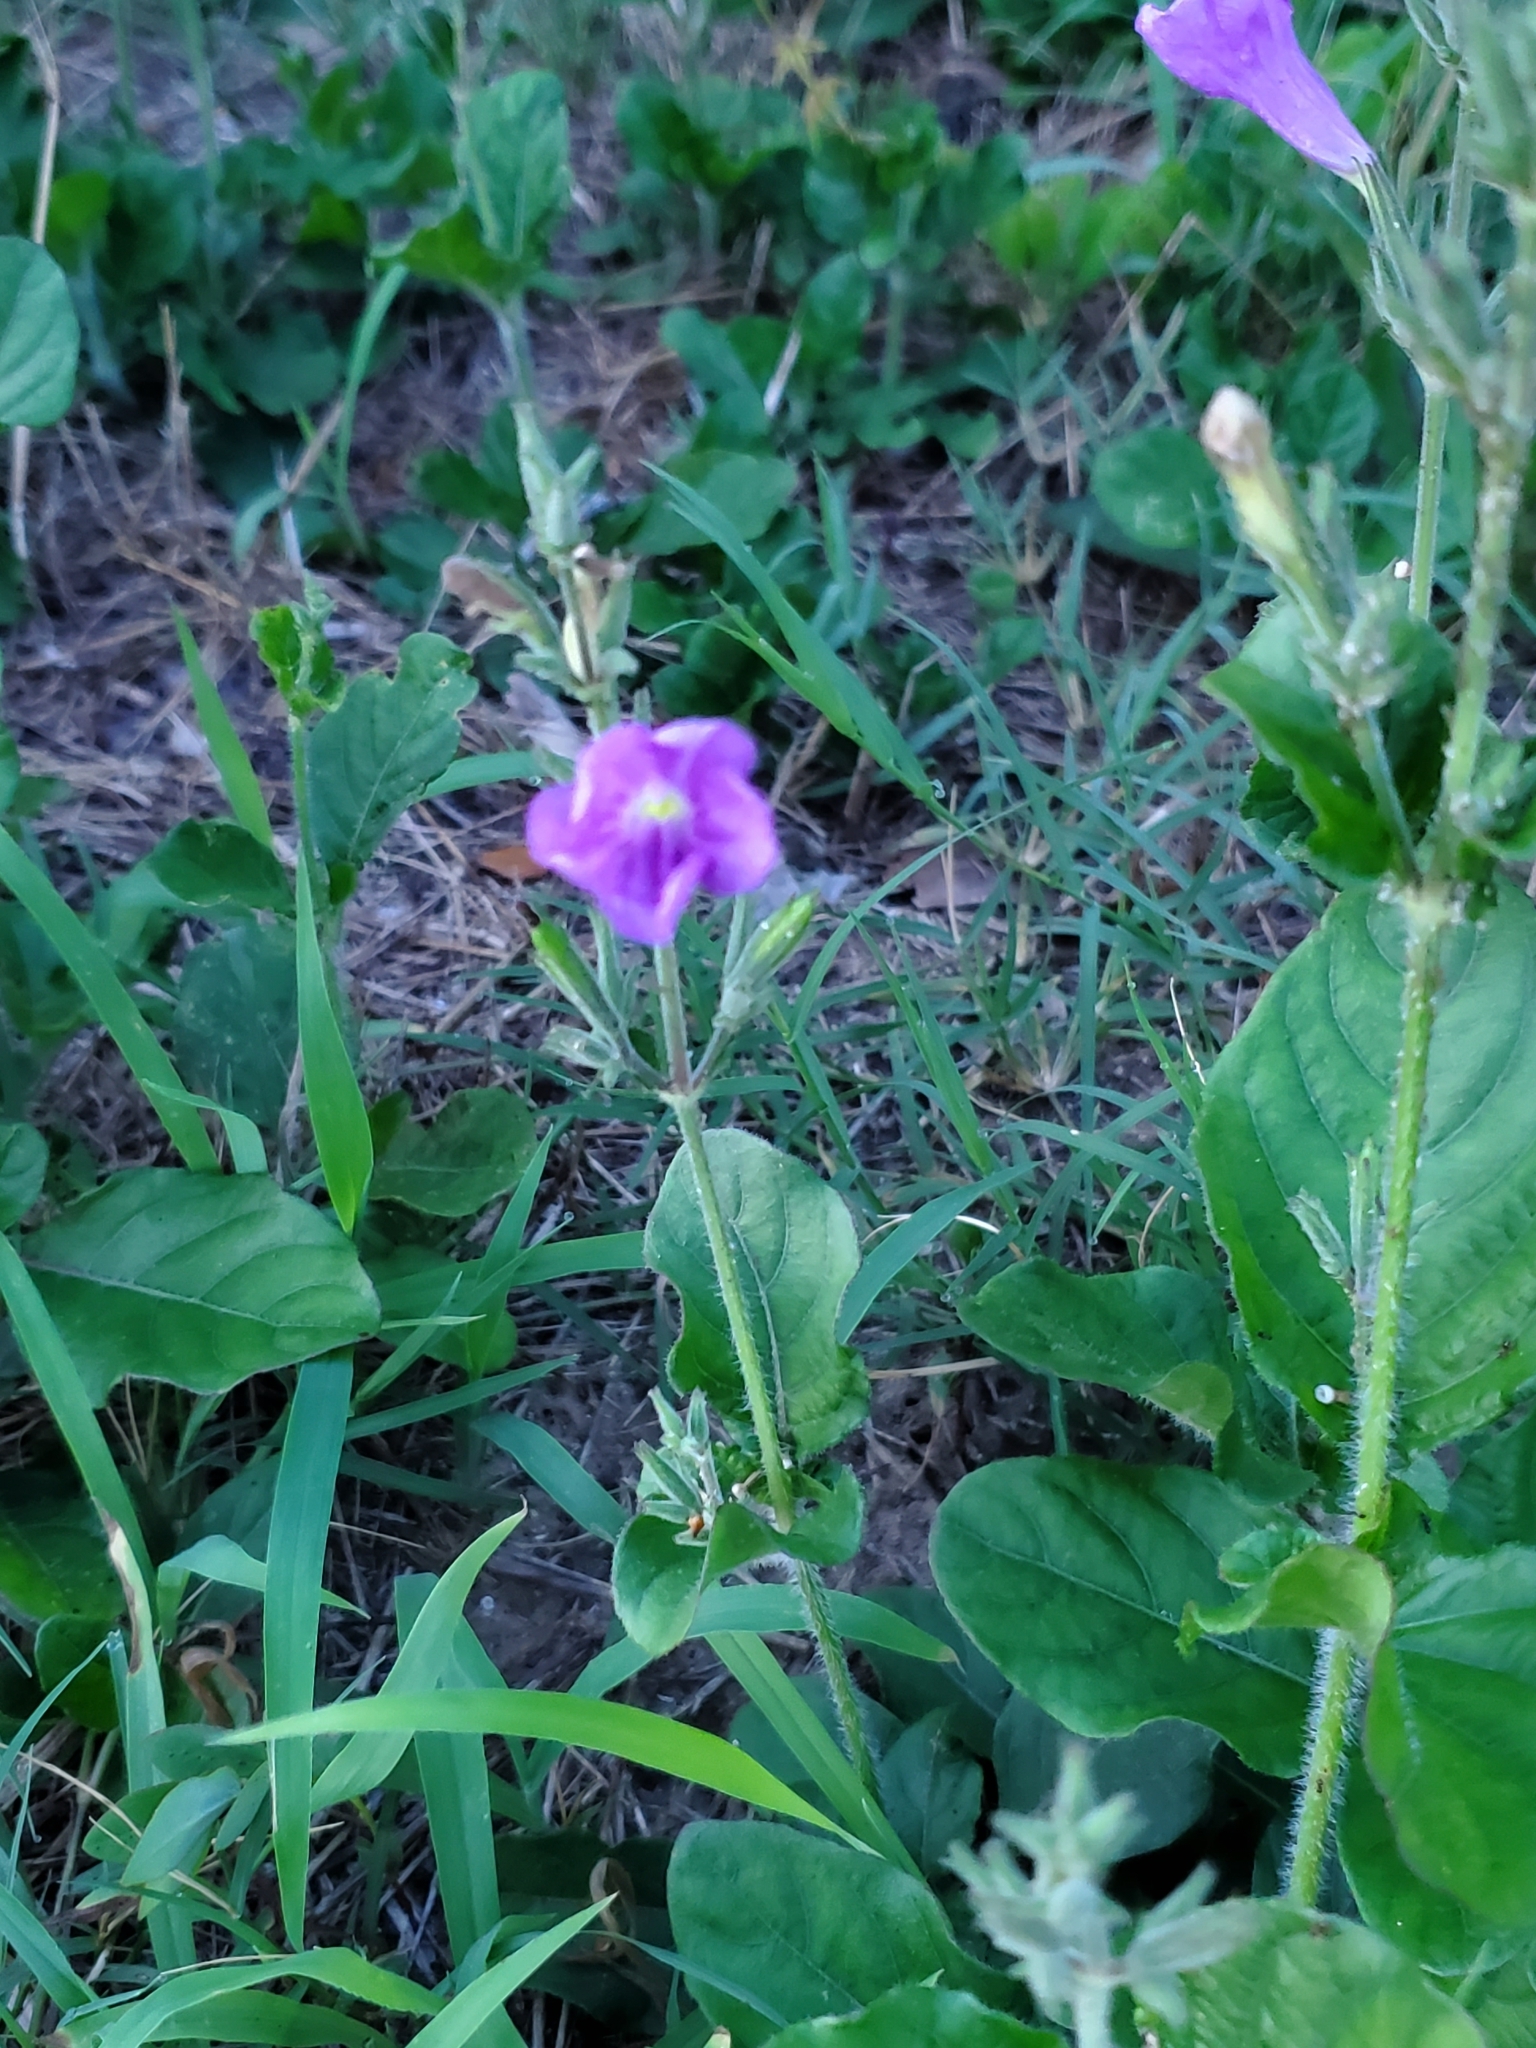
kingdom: Plantae
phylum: Tracheophyta
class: Magnoliopsida
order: Lamiales
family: Acanthaceae
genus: Ruellia
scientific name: Ruellia ciliatiflora
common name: Hairyflower wild petunia
